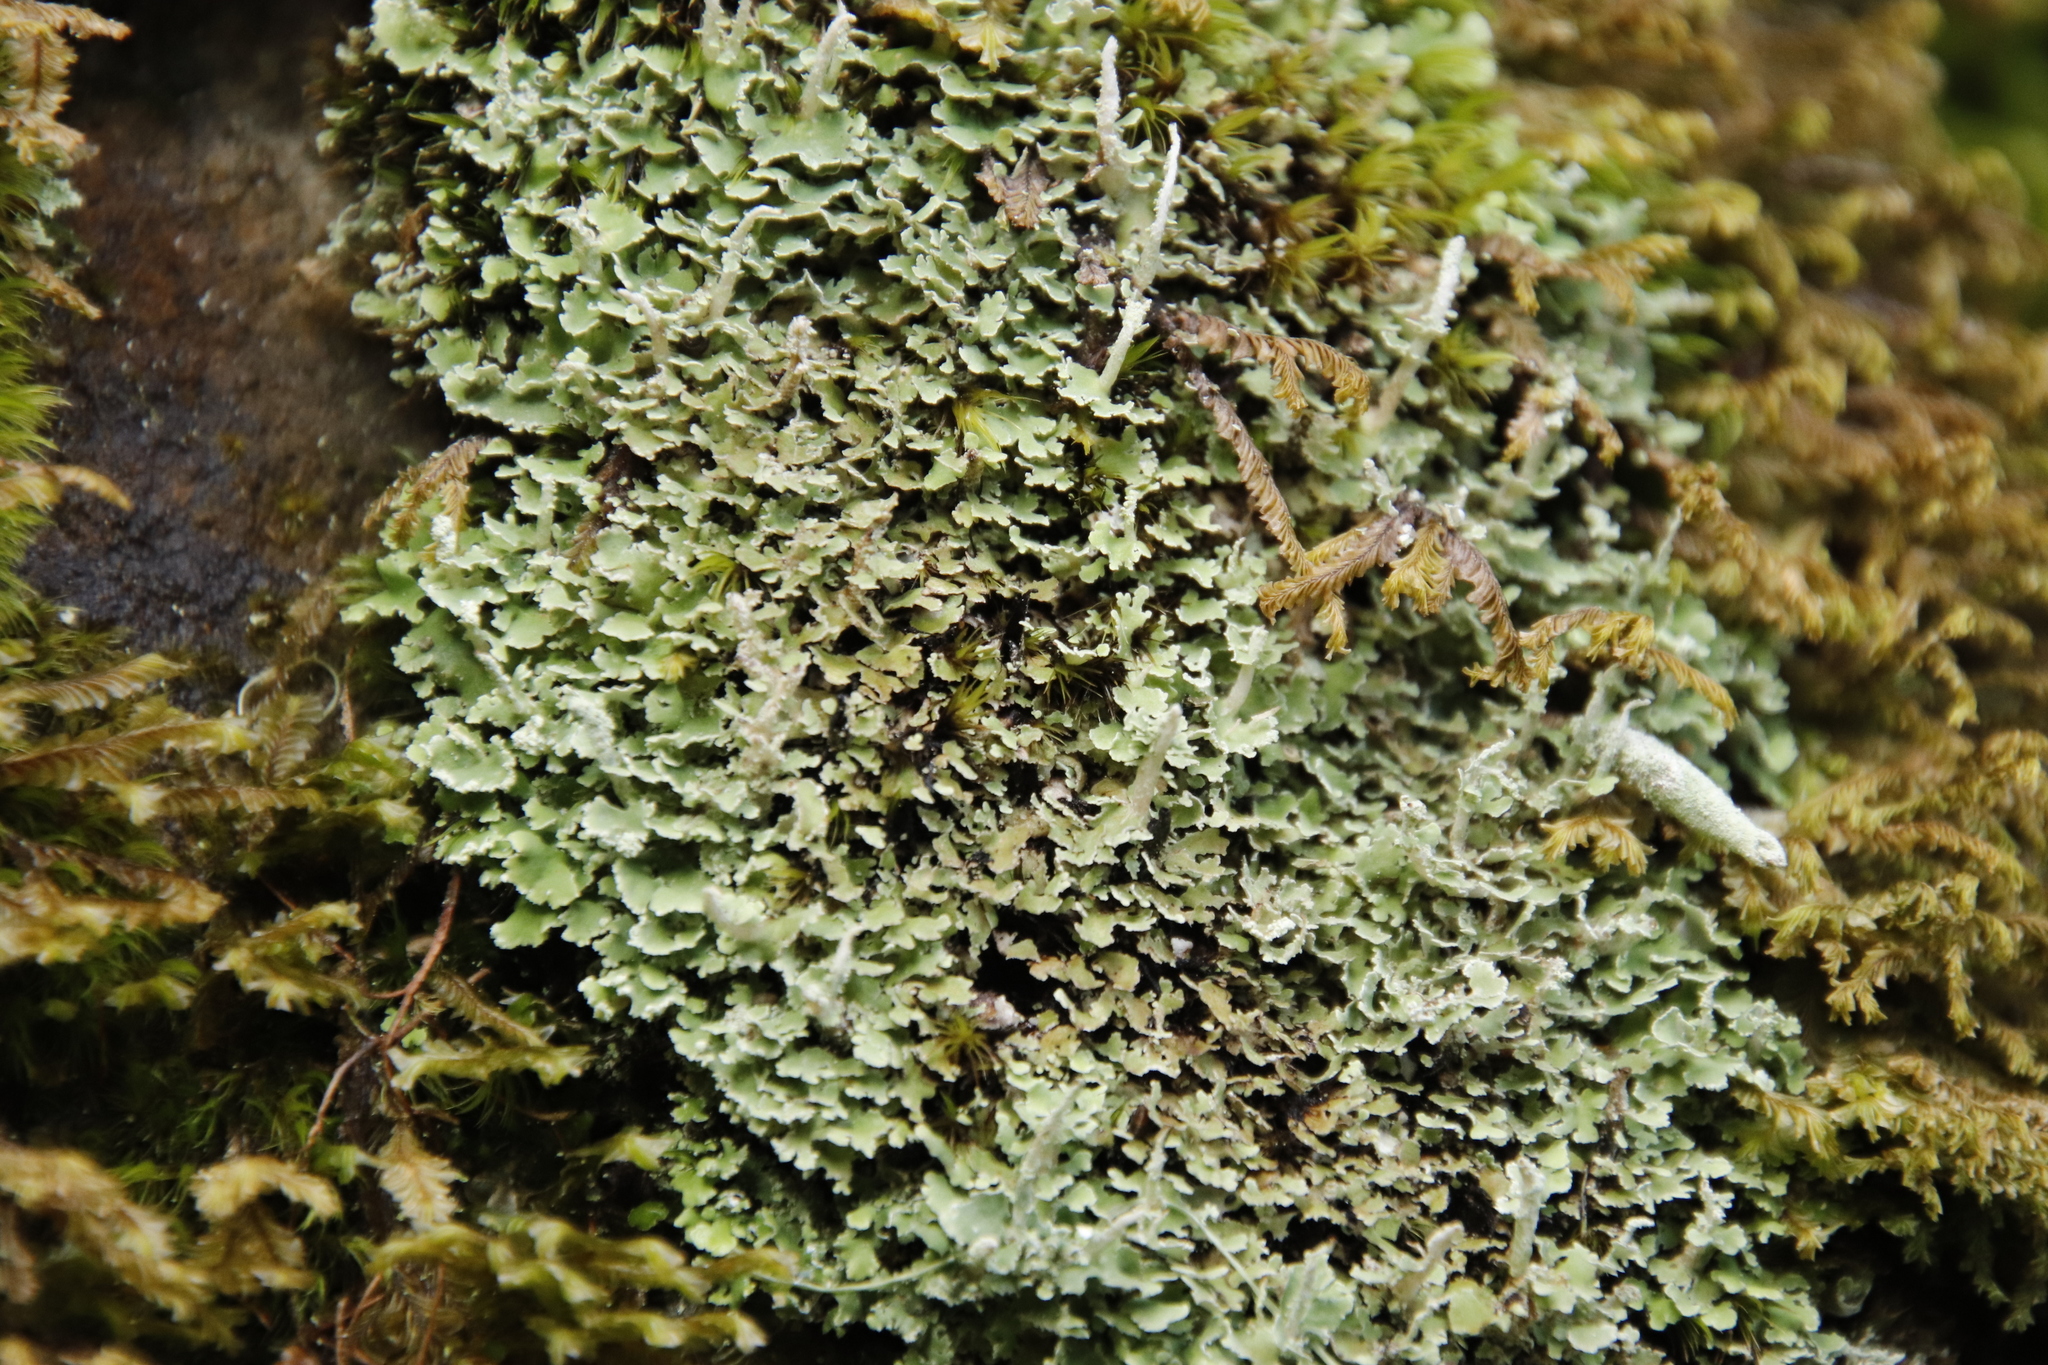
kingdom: Fungi
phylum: Ascomycota
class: Lecanoromycetes
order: Lecanorales
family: Cladoniaceae
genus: Cladonia
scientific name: Cladonia ochrochlora
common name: Smooth-footed powderhorn
